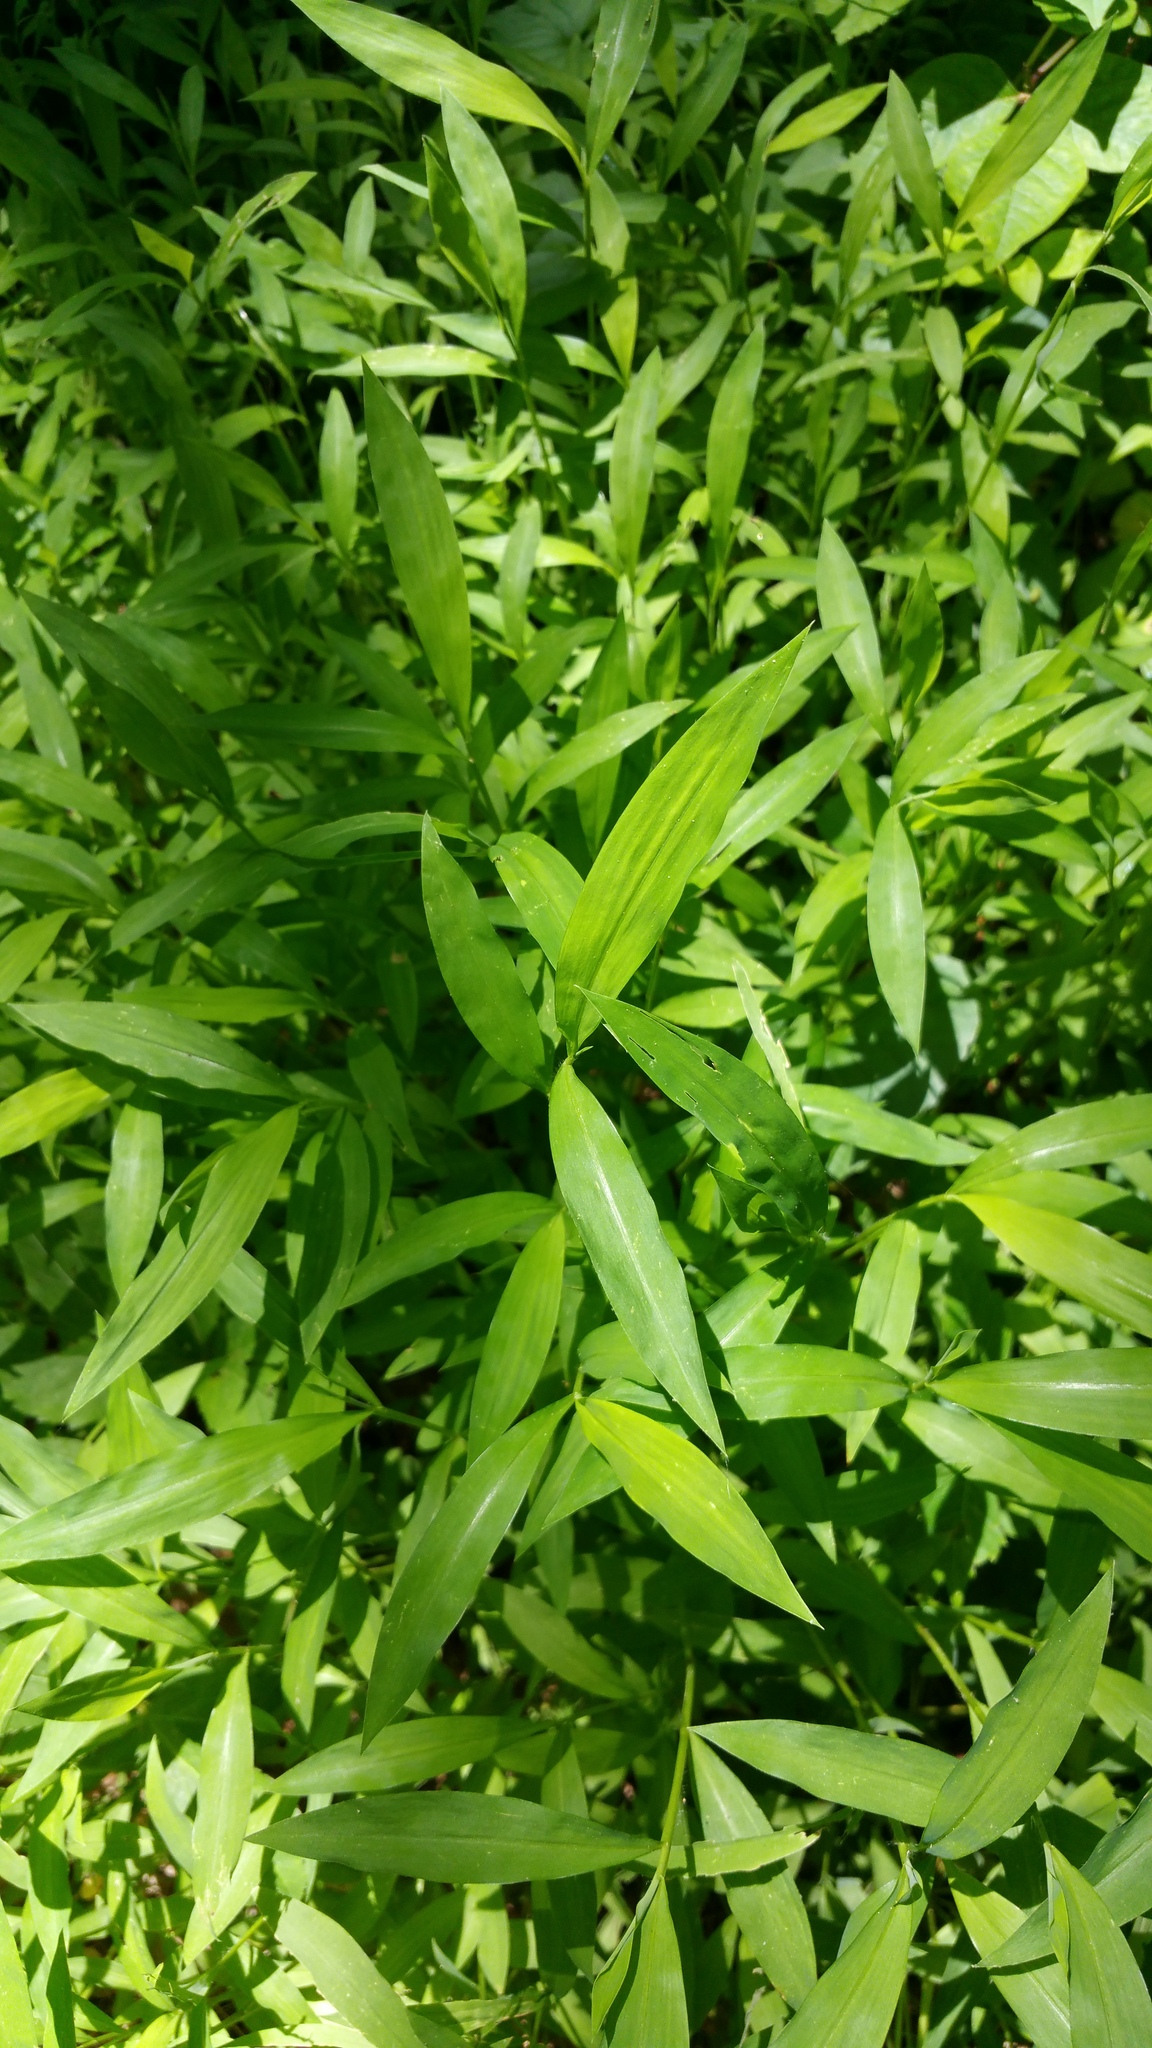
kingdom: Plantae
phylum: Tracheophyta
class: Liliopsida
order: Poales
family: Poaceae
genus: Microstegium
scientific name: Microstegium vimineum
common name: Japanese stiltgrass
